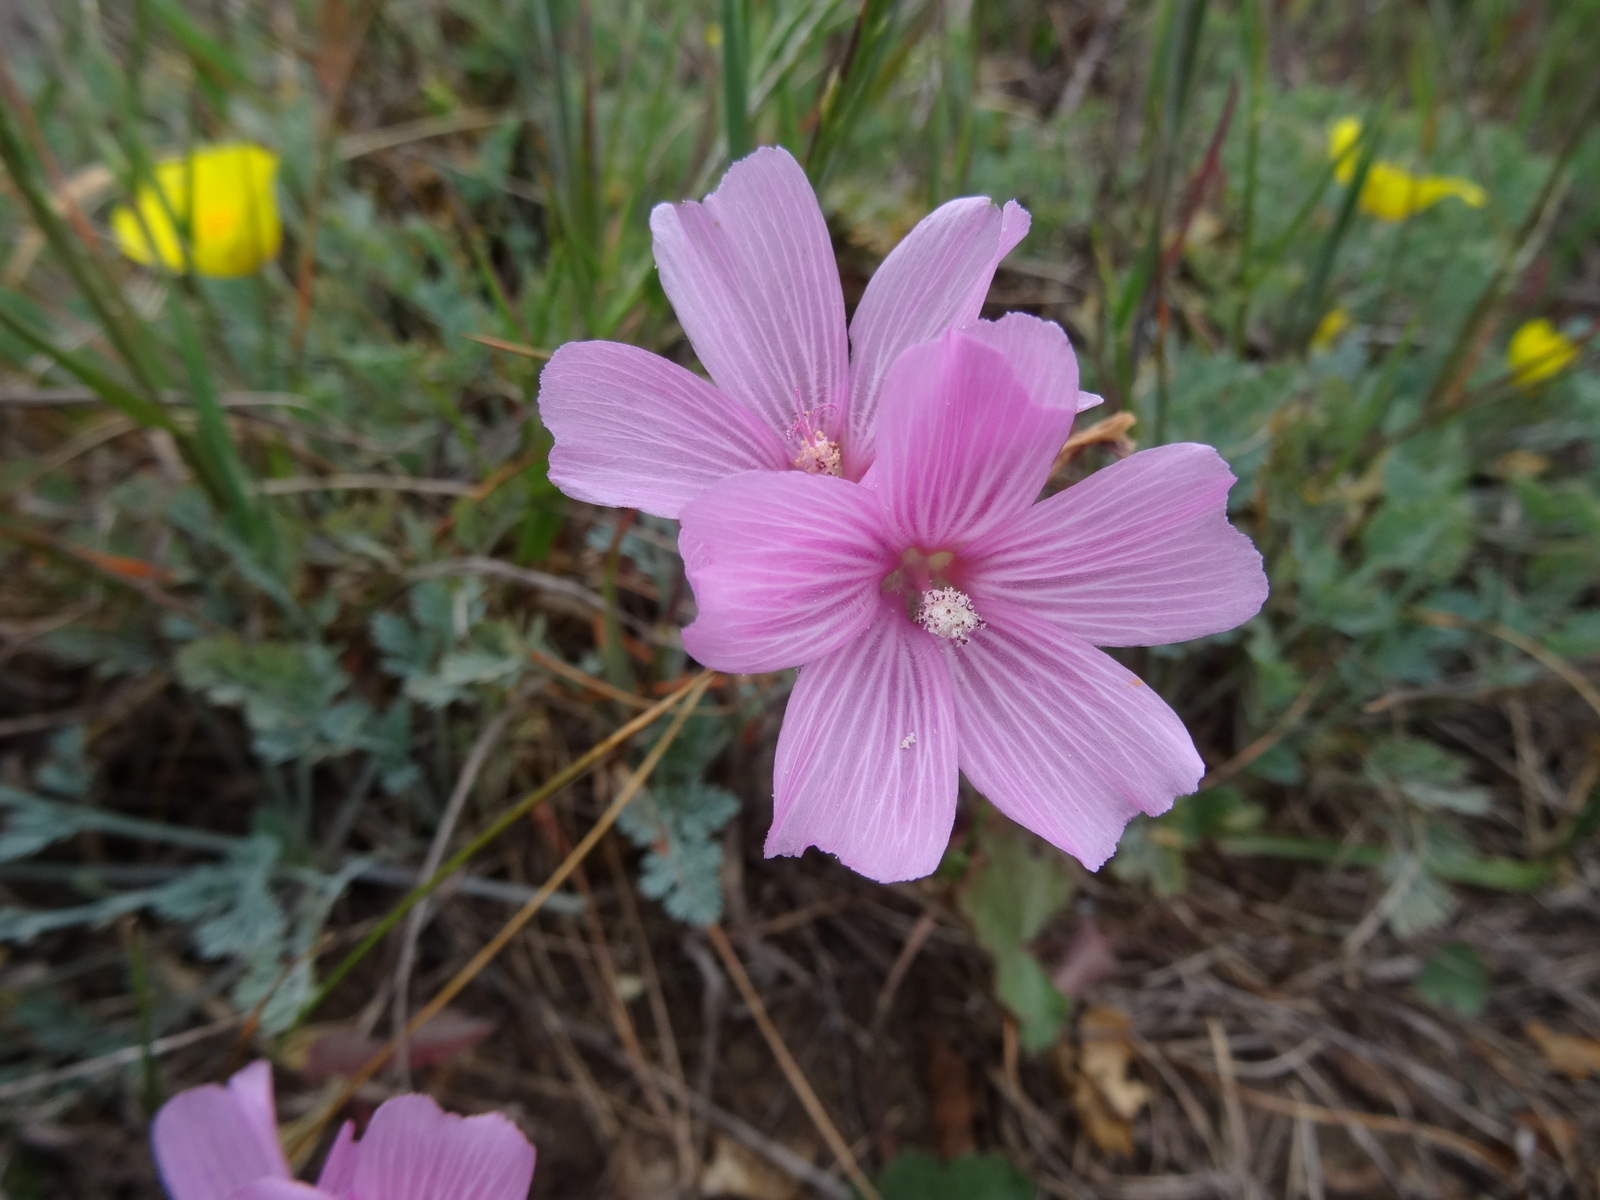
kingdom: Plantae
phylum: Tracheophyta
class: Magnoliopsida
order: Malvales
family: Malvaceae
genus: Sidalcea
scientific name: Sidalcea malviflora
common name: Greek mallow
